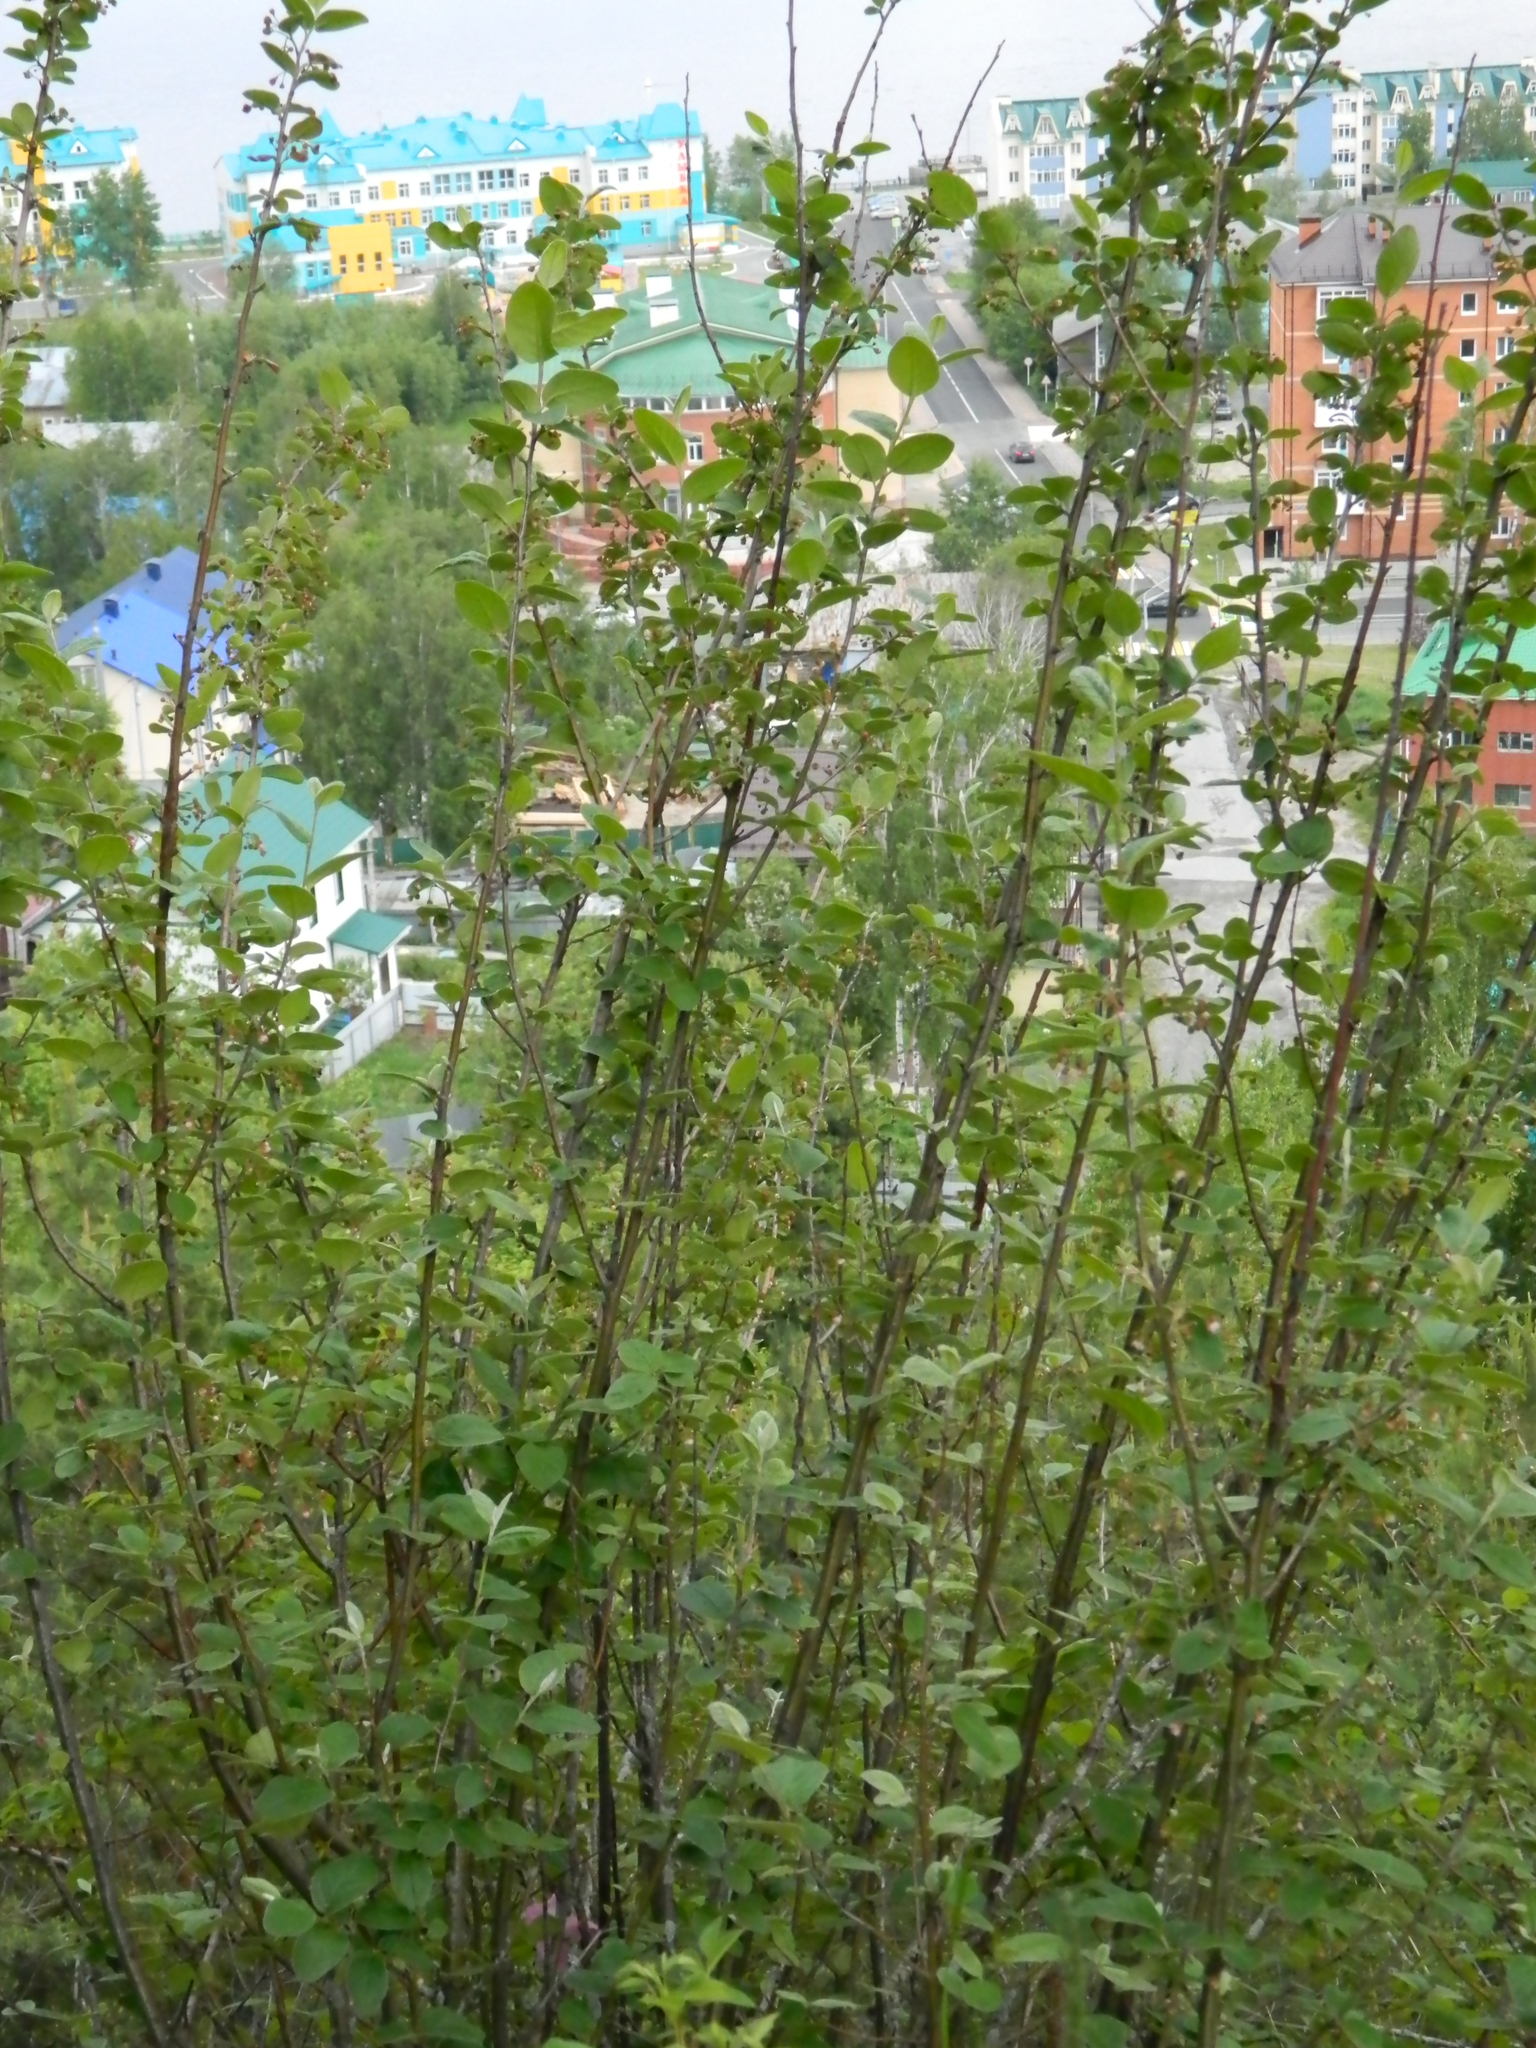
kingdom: Plantae
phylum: Tracheophyta
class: Magnoliopsida
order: Rosales
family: Rosaceae
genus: Cotoneaster
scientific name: Cotoneaster melanocarpus
